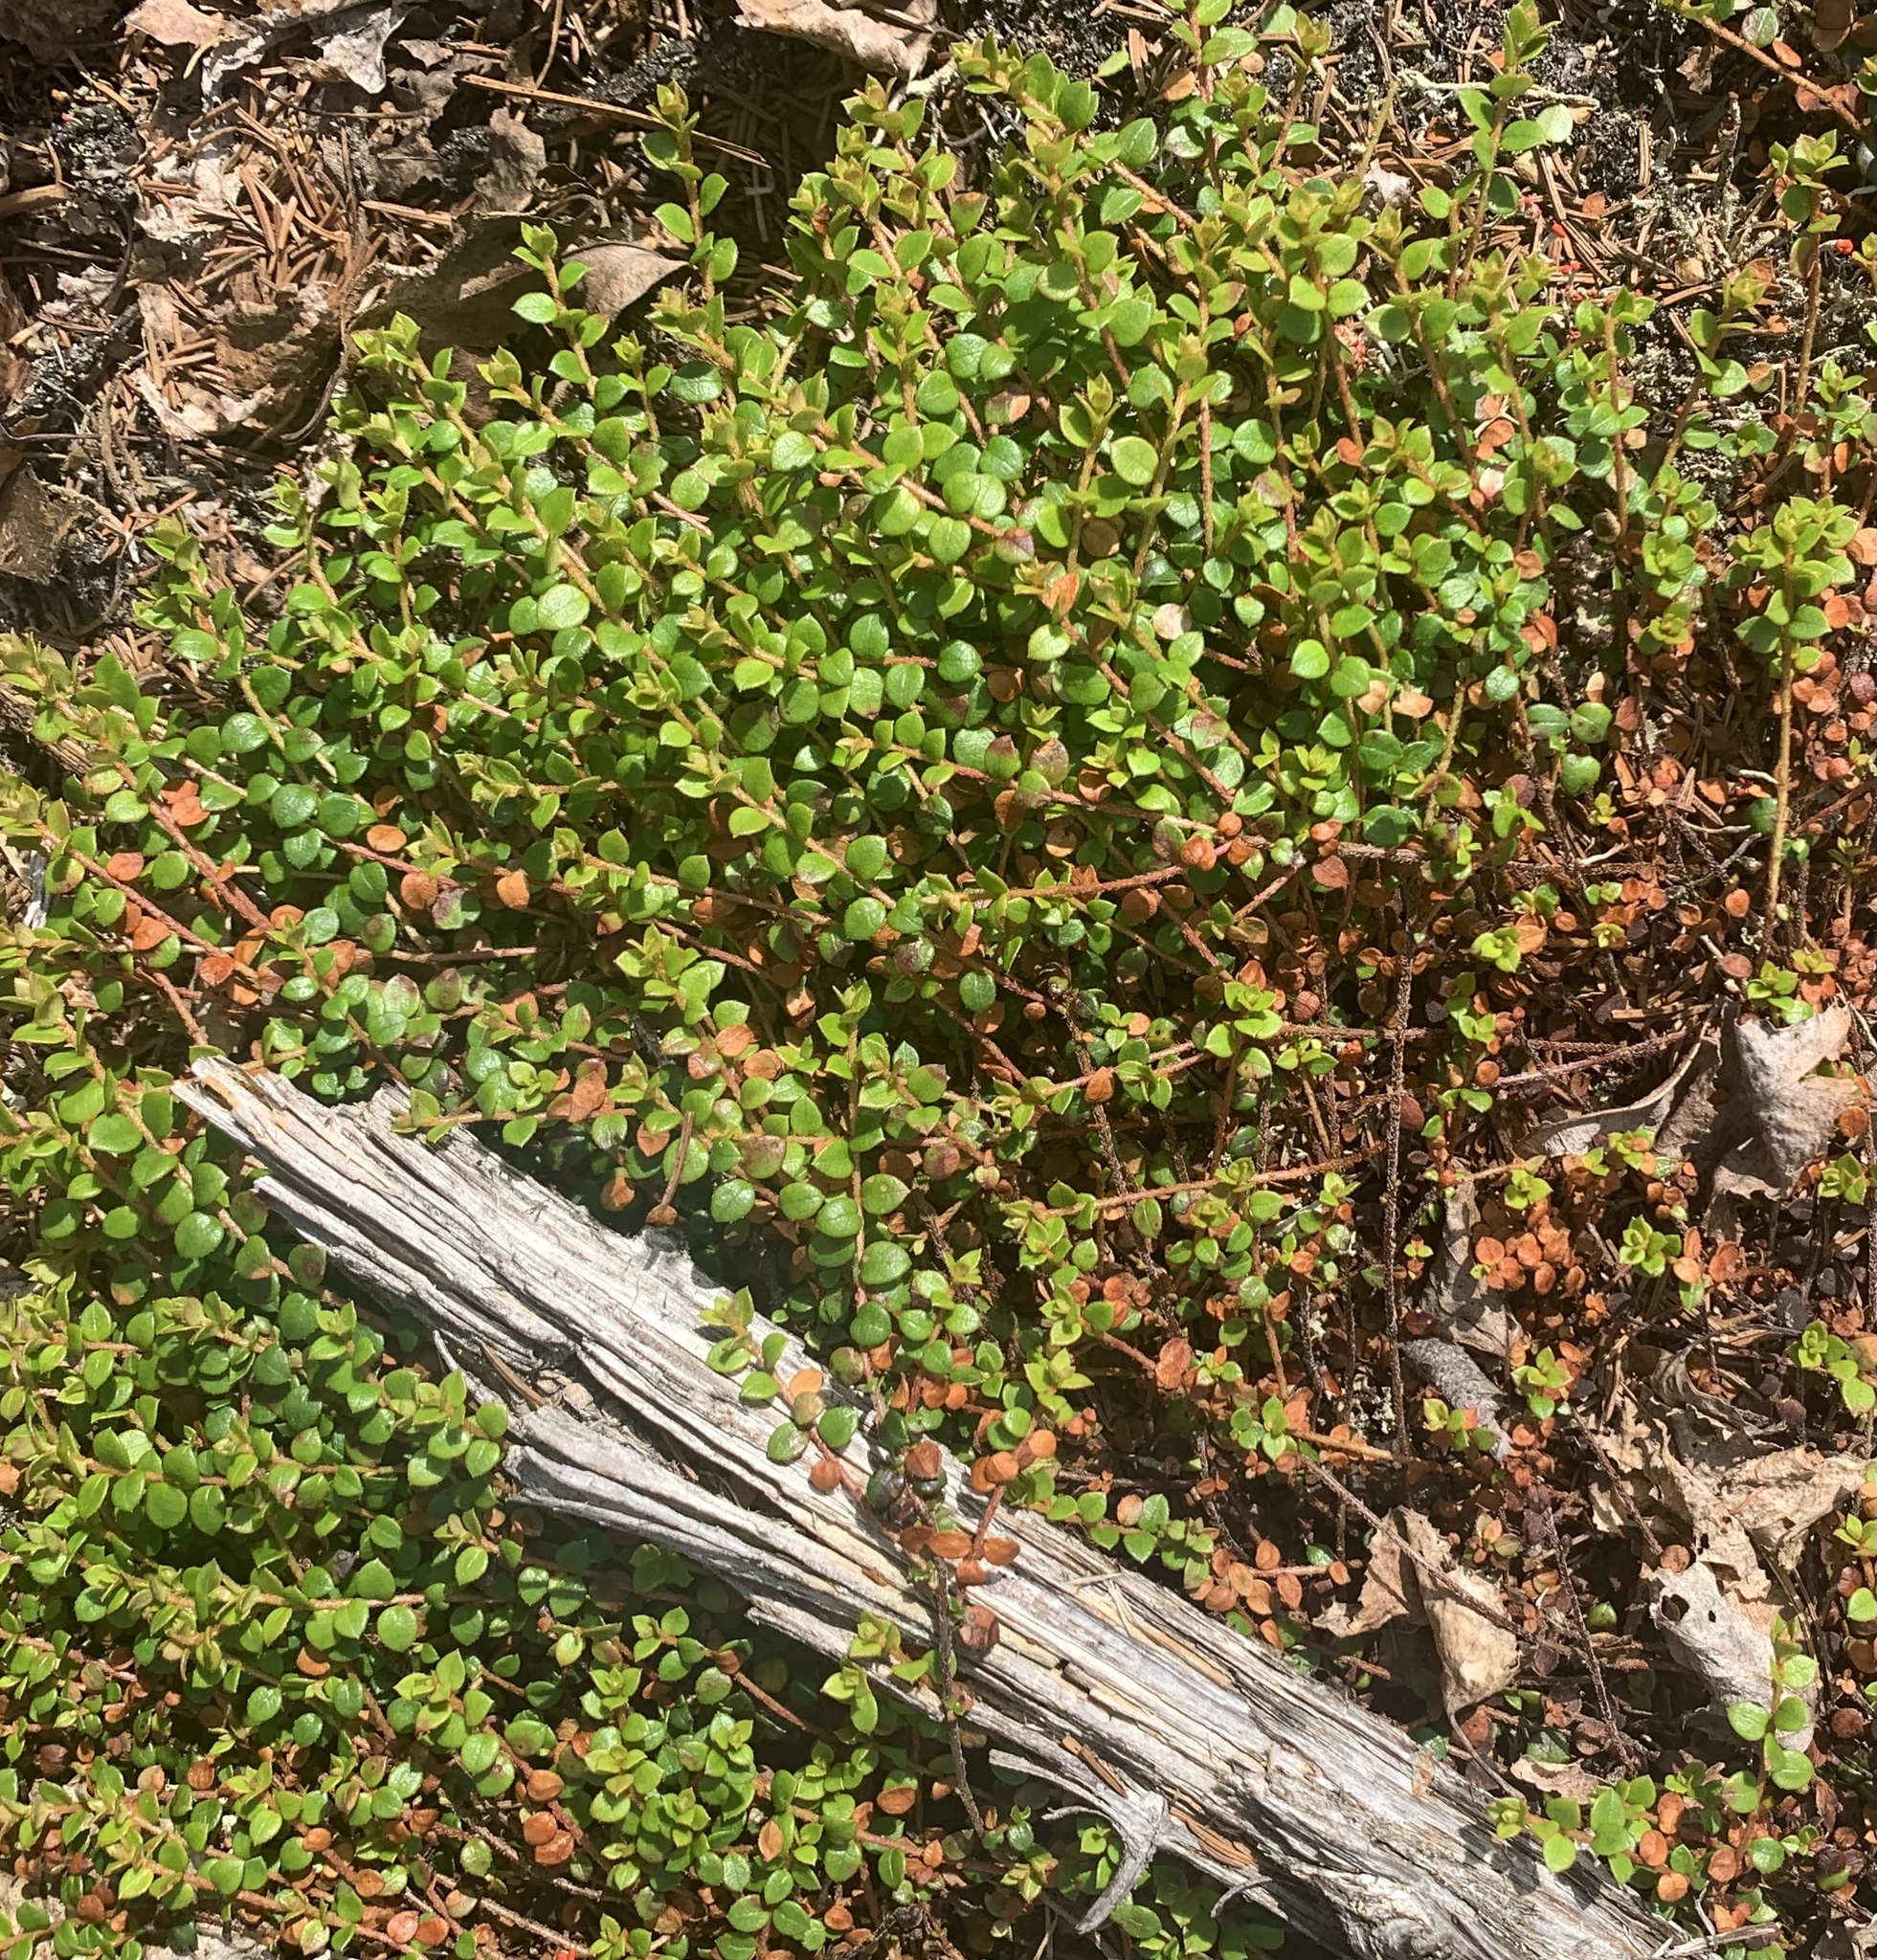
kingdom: Plantae
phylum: Tracheophyta
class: Magnoliopsida
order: Ericales
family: Ericaceae
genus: Gaultheria
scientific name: Gaultheria hispidula
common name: Cancer wintergreen
